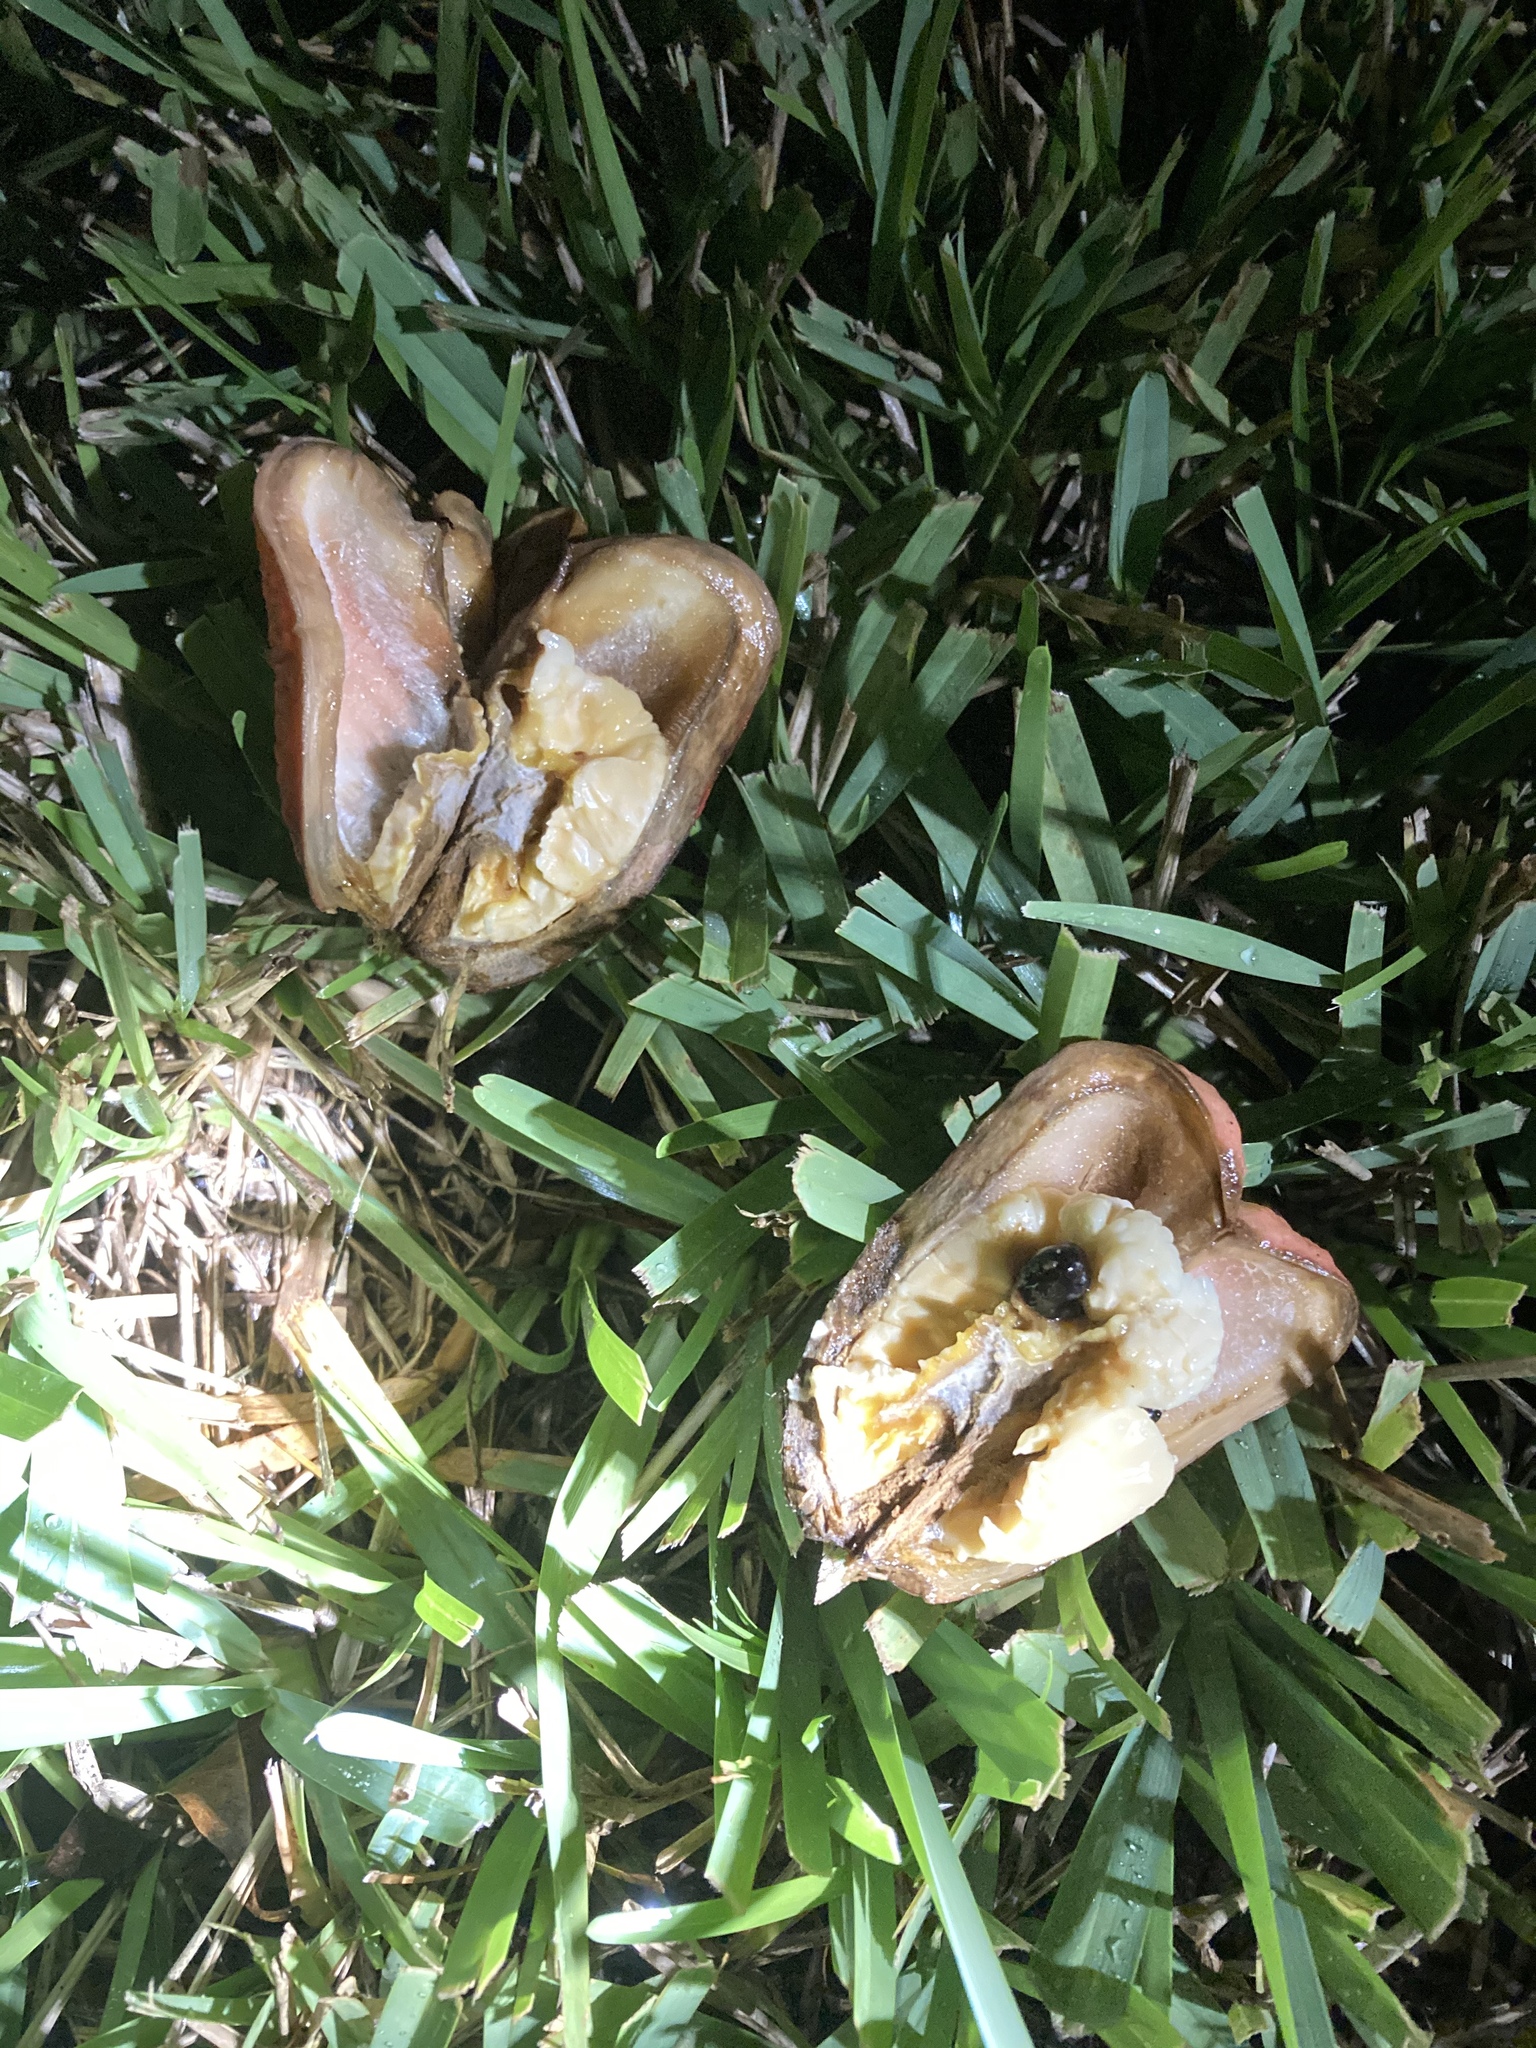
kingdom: Plantae
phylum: Tracheophyta
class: Magnoliopsida
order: Sapindales
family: Sapindaceae
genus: Blighia
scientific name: Blighia sapida
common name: Akee
